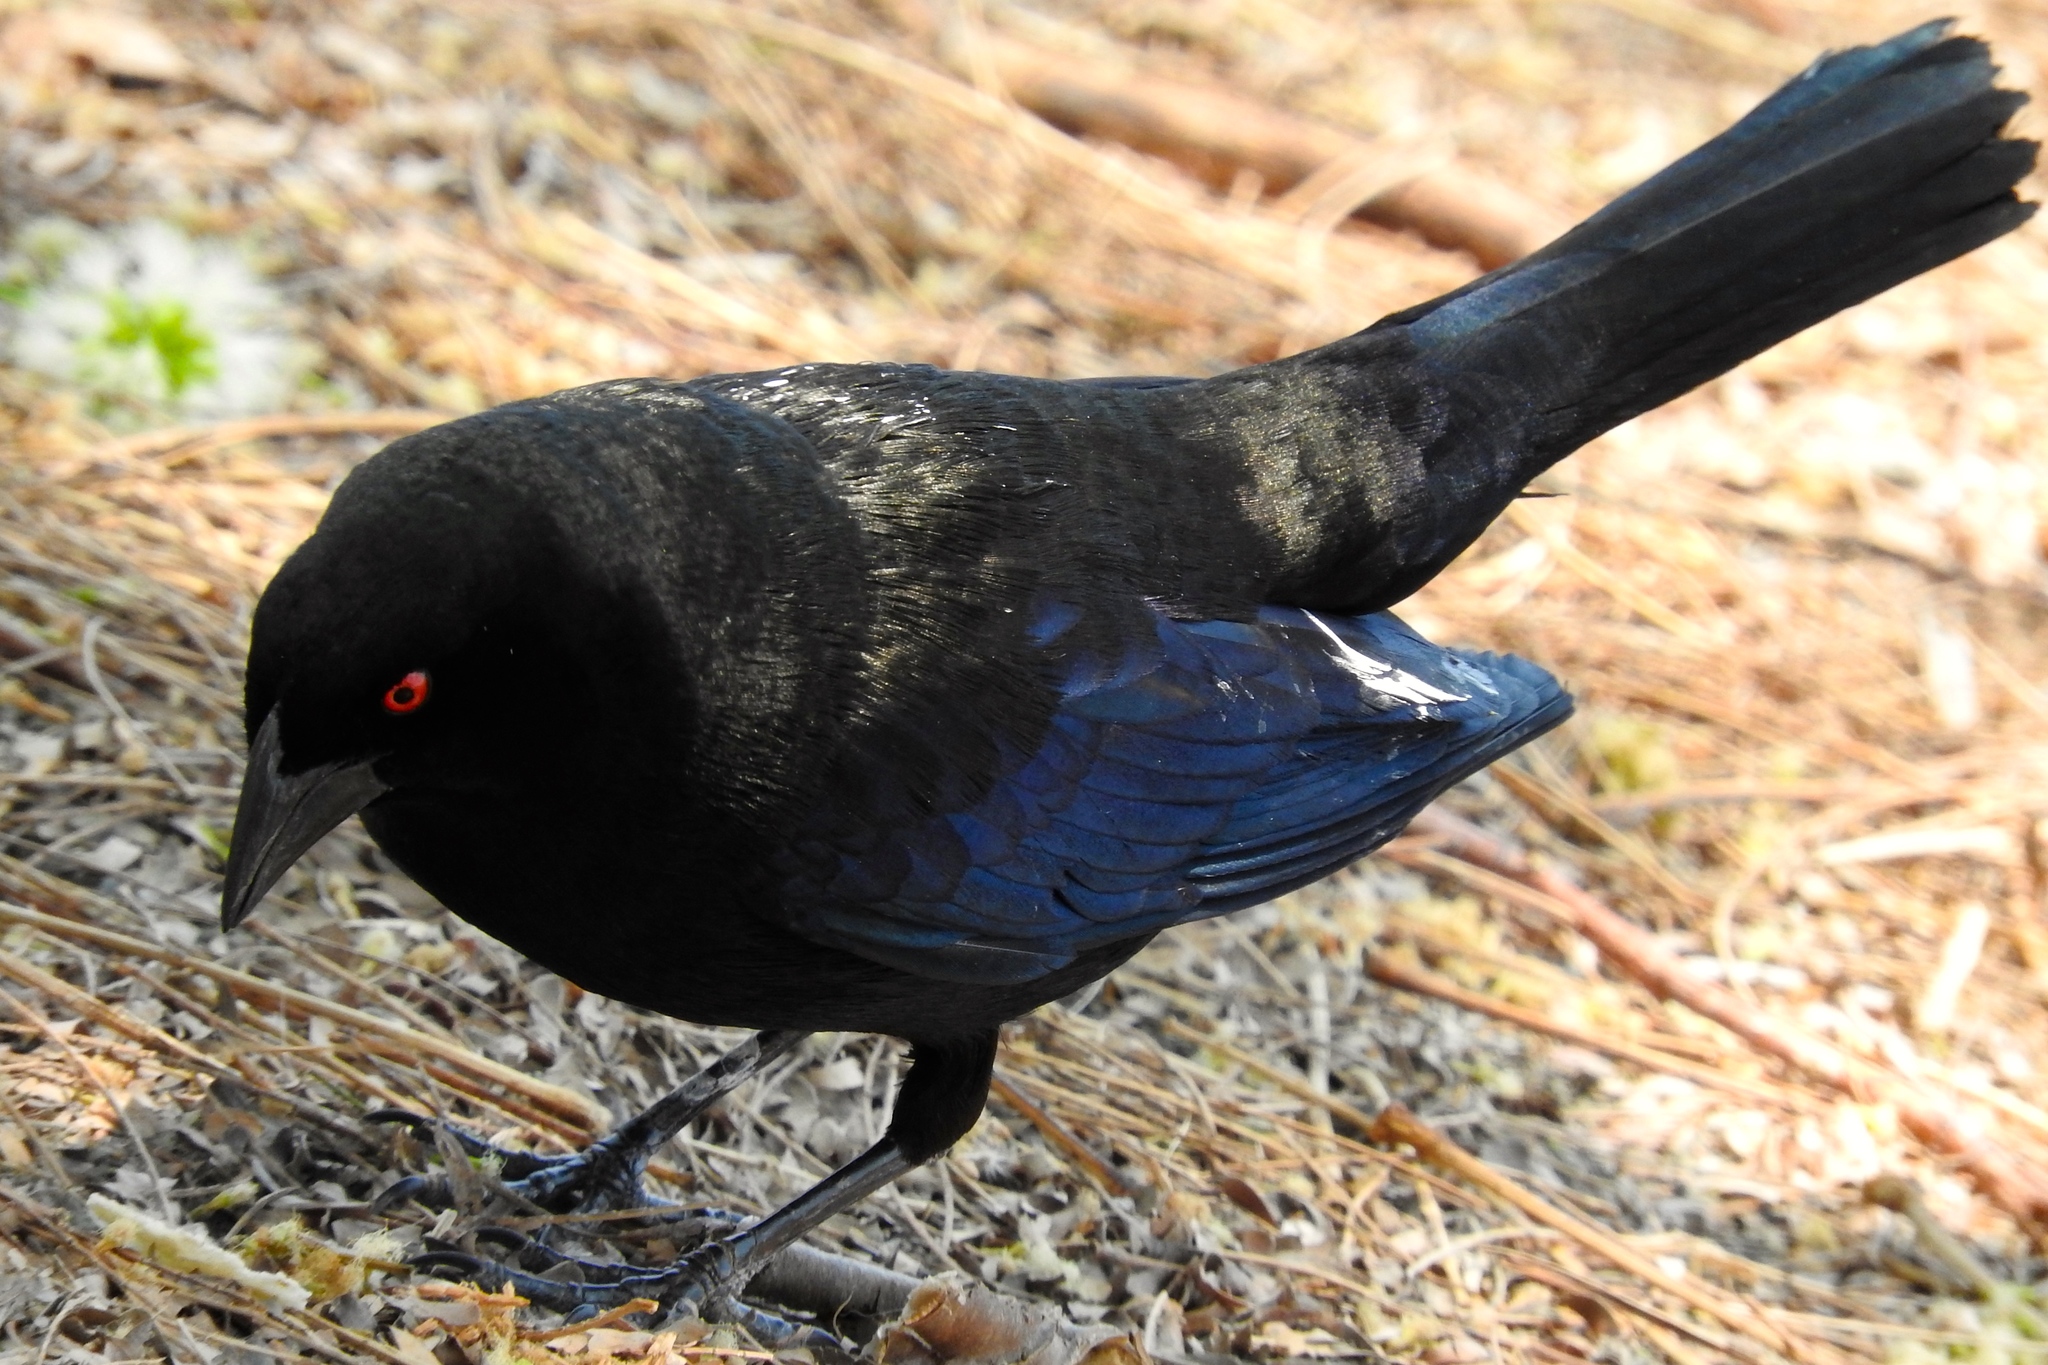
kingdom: Animalia
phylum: Chordata
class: Aves
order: Passeriformes
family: Icteridae
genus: Molothrus
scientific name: Molothrus aeneus
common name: Bronzed cowbird
